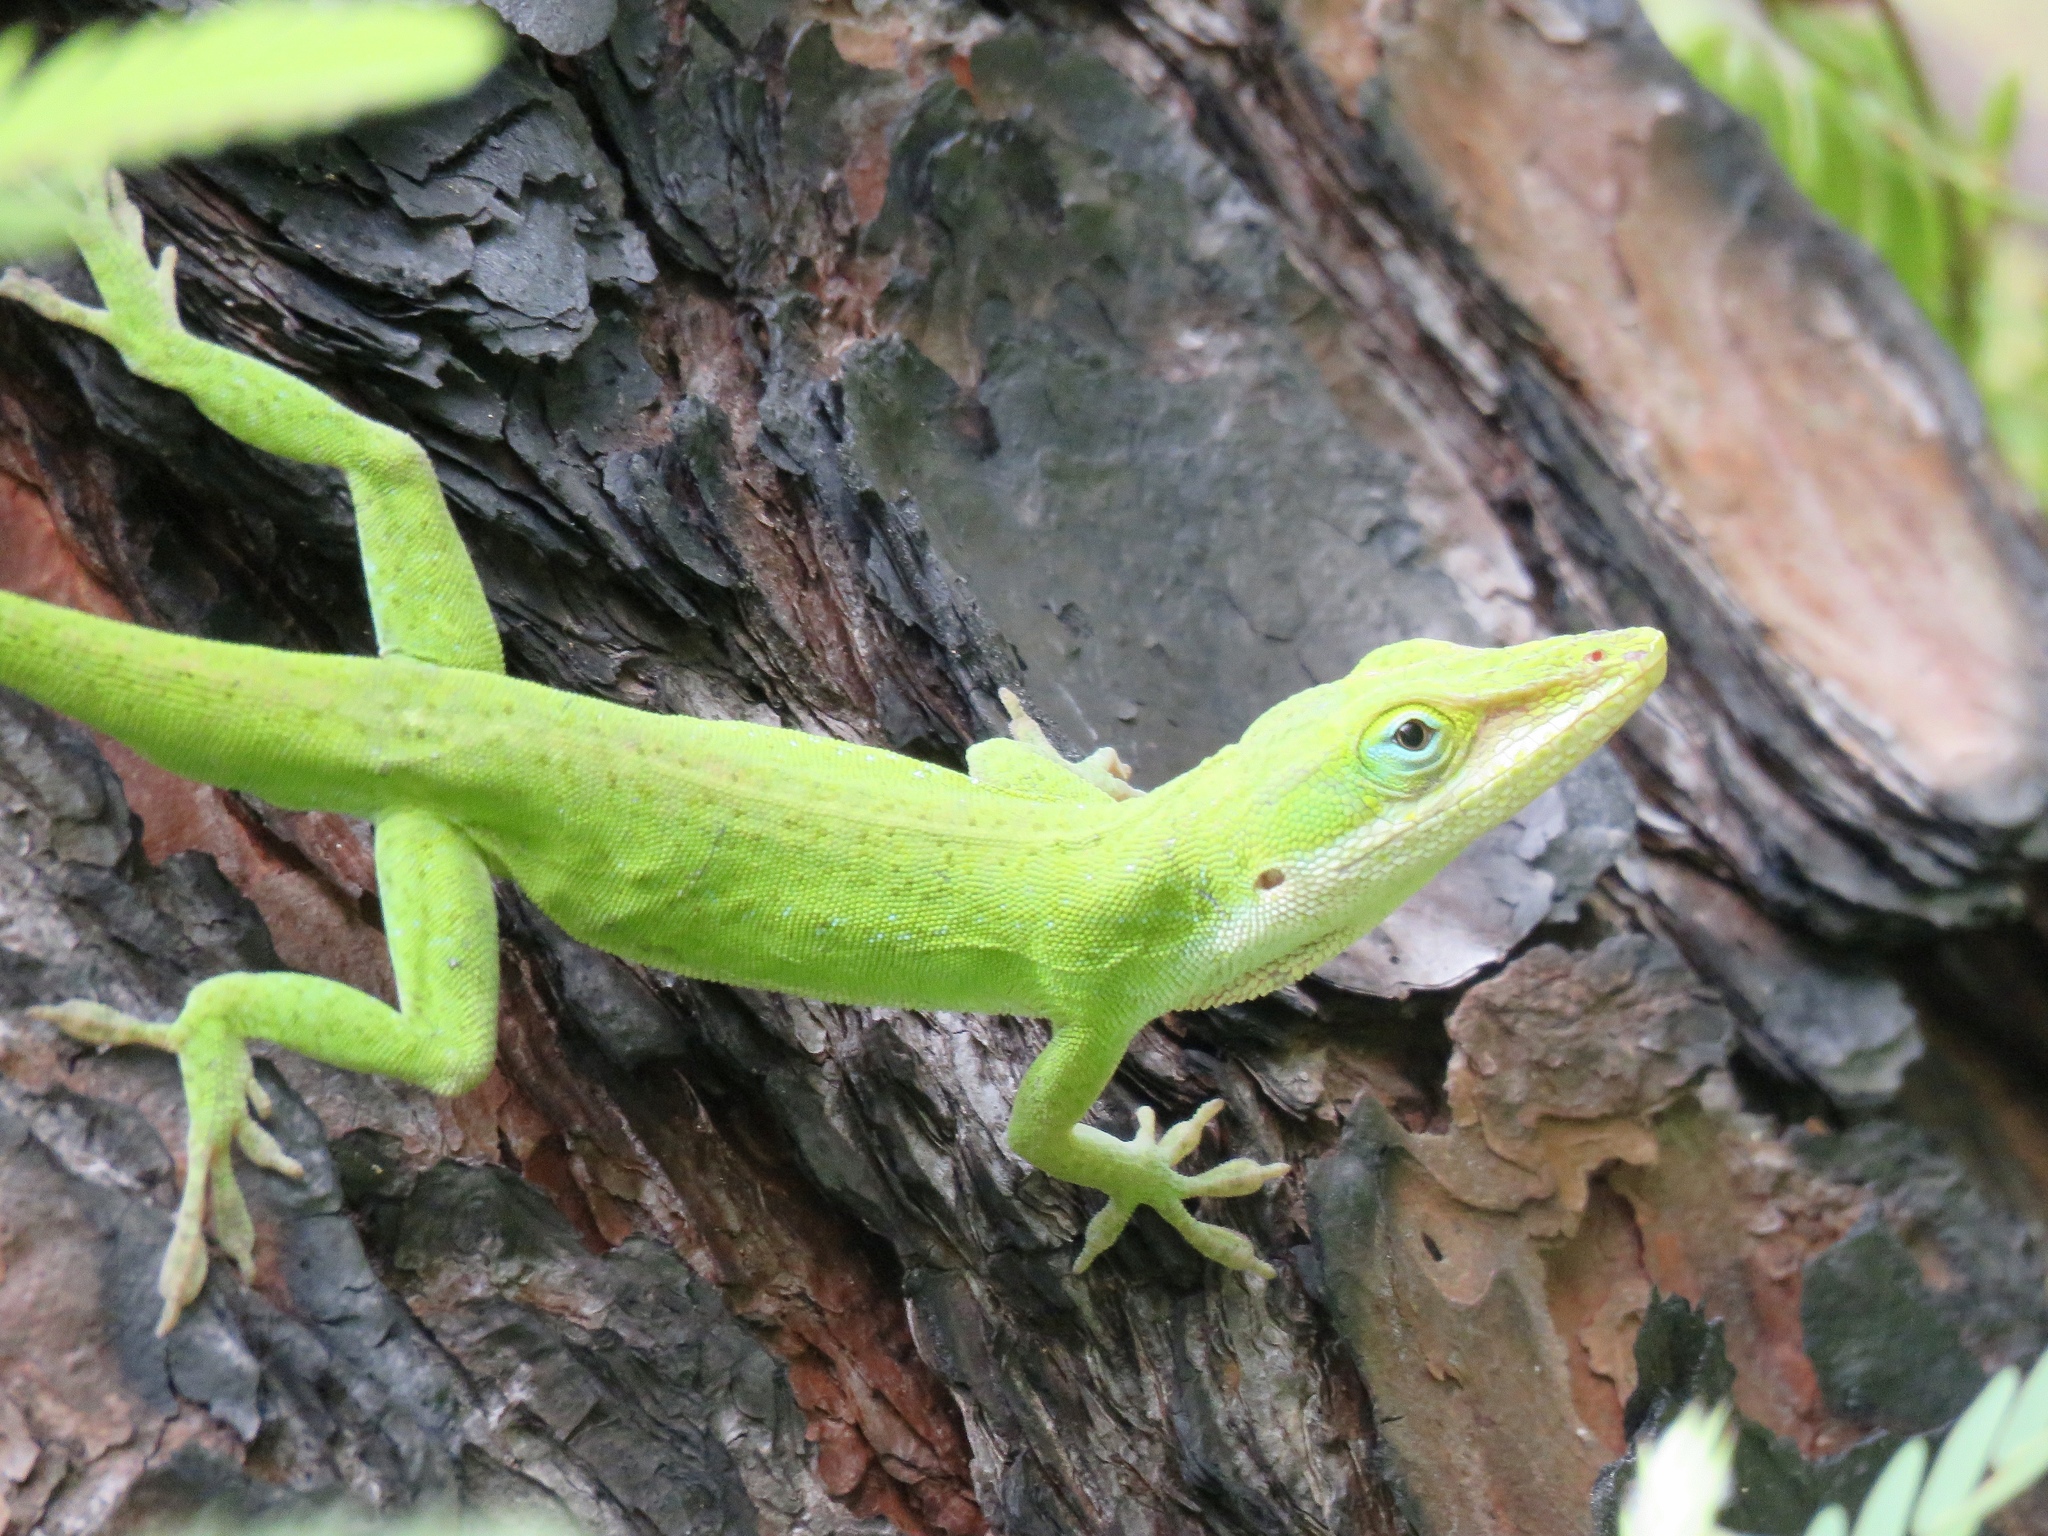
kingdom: Animalia
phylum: Chordata
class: Squamata
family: Dactyloidae
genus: Anolis
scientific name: Anolis carolinensis
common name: Green anole
